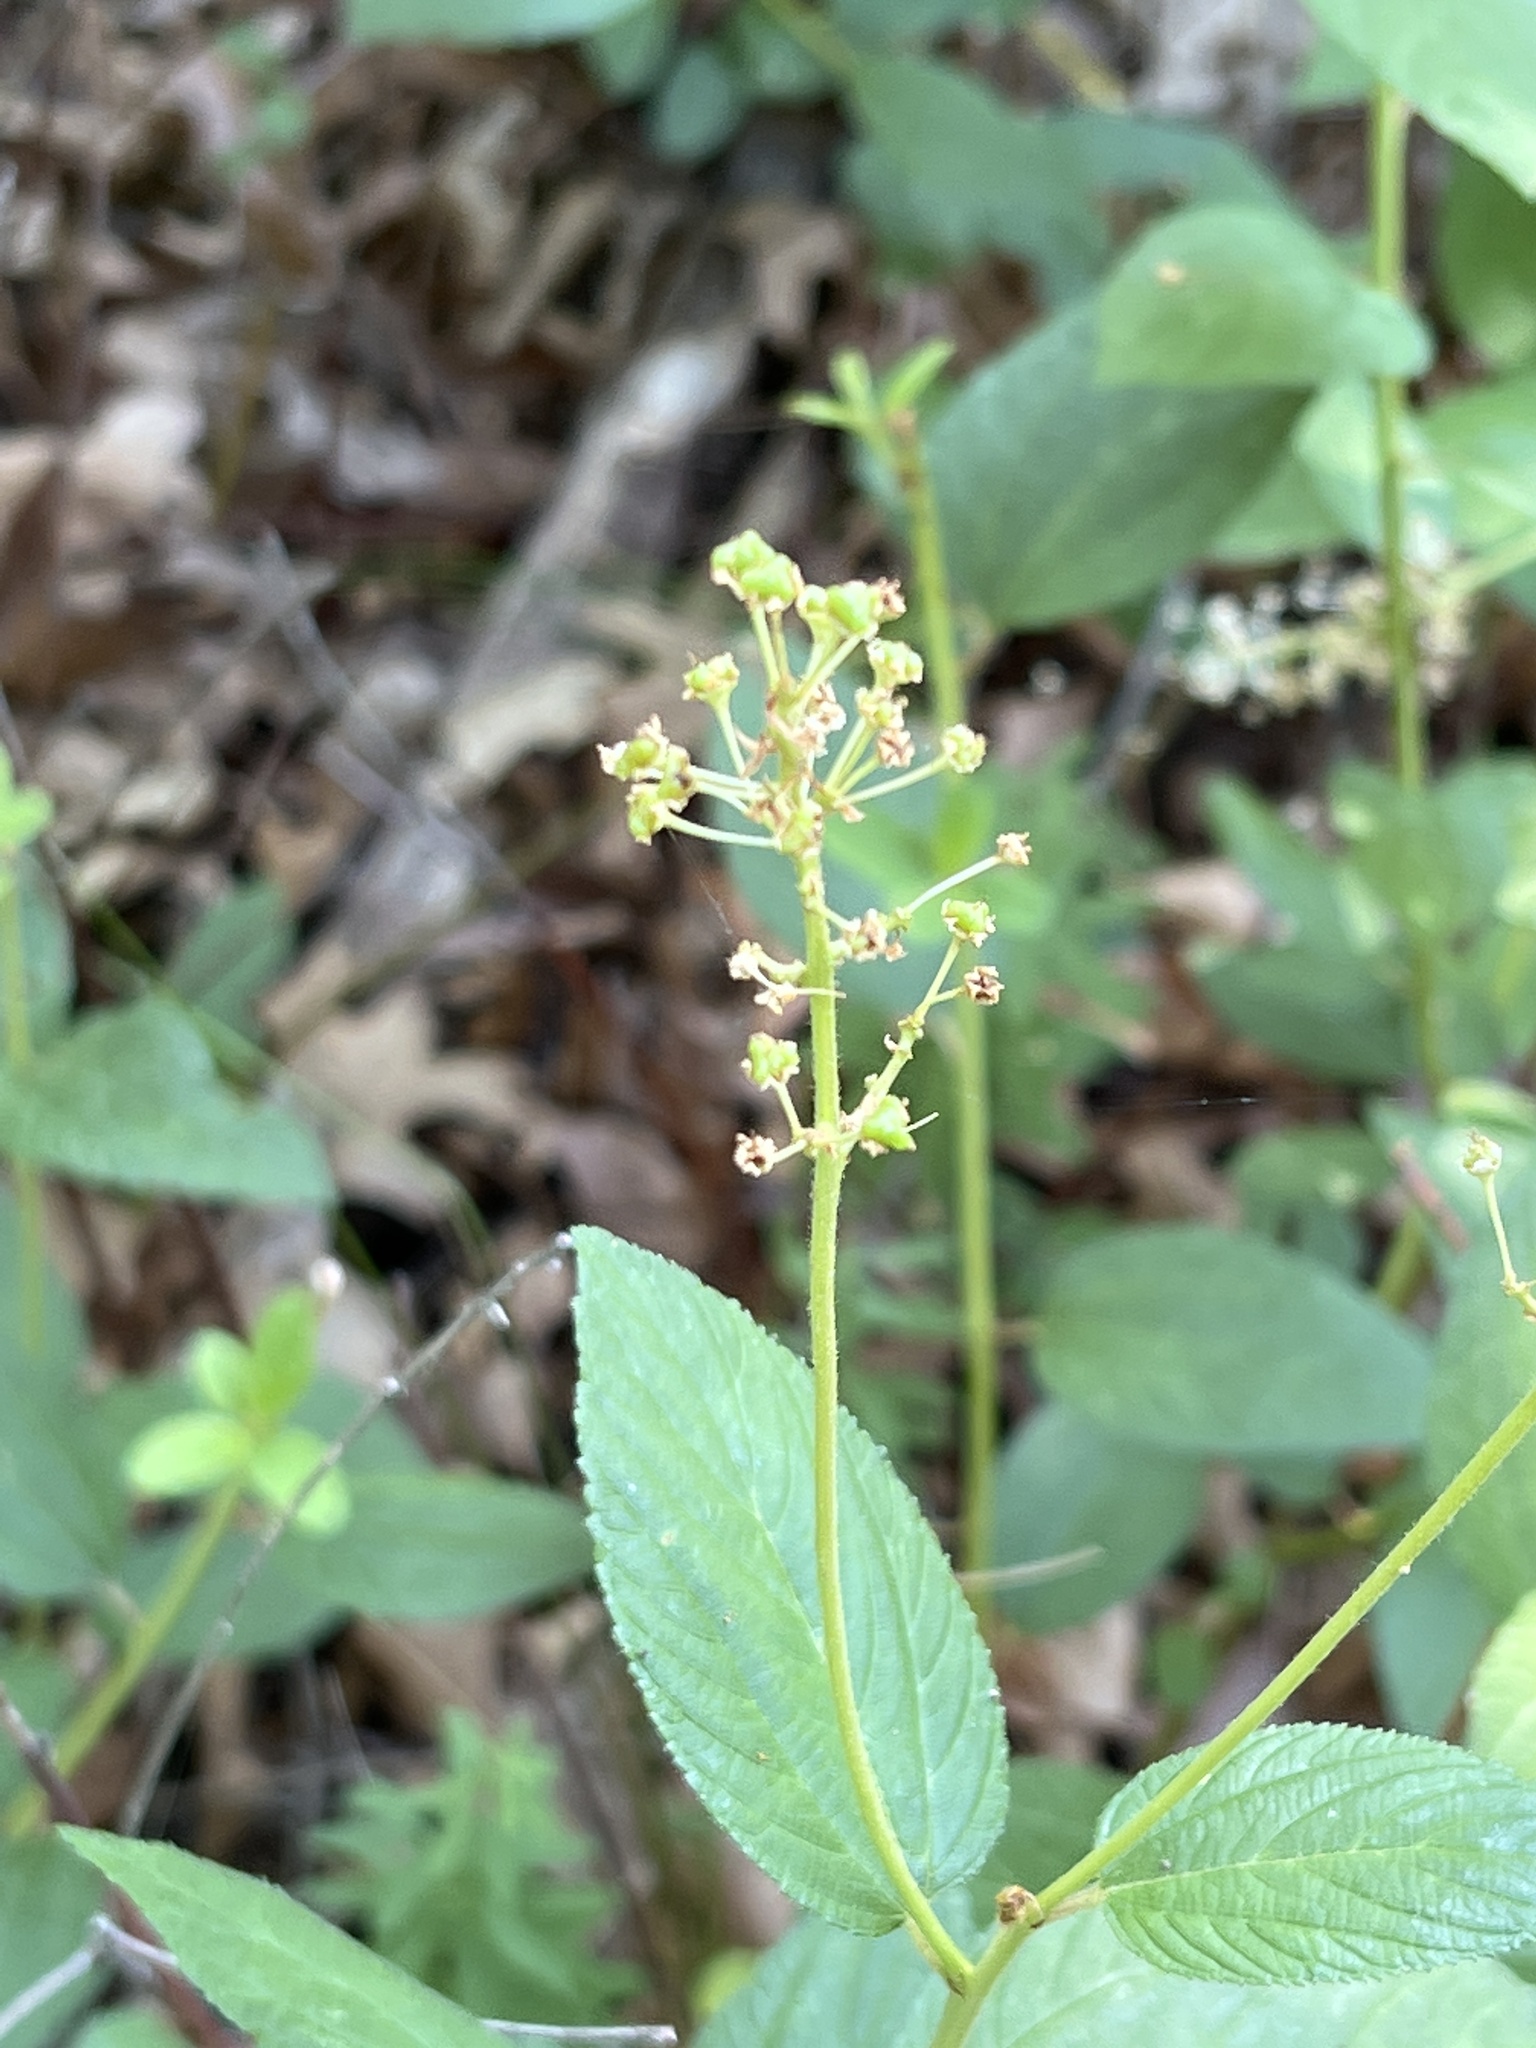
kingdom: Plantae
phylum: Tracheophyta
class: Magnoliopsida
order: Rosales
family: Rhamnaceae
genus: Ceanothus
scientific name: Ceanothus americanus
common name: Redroot
